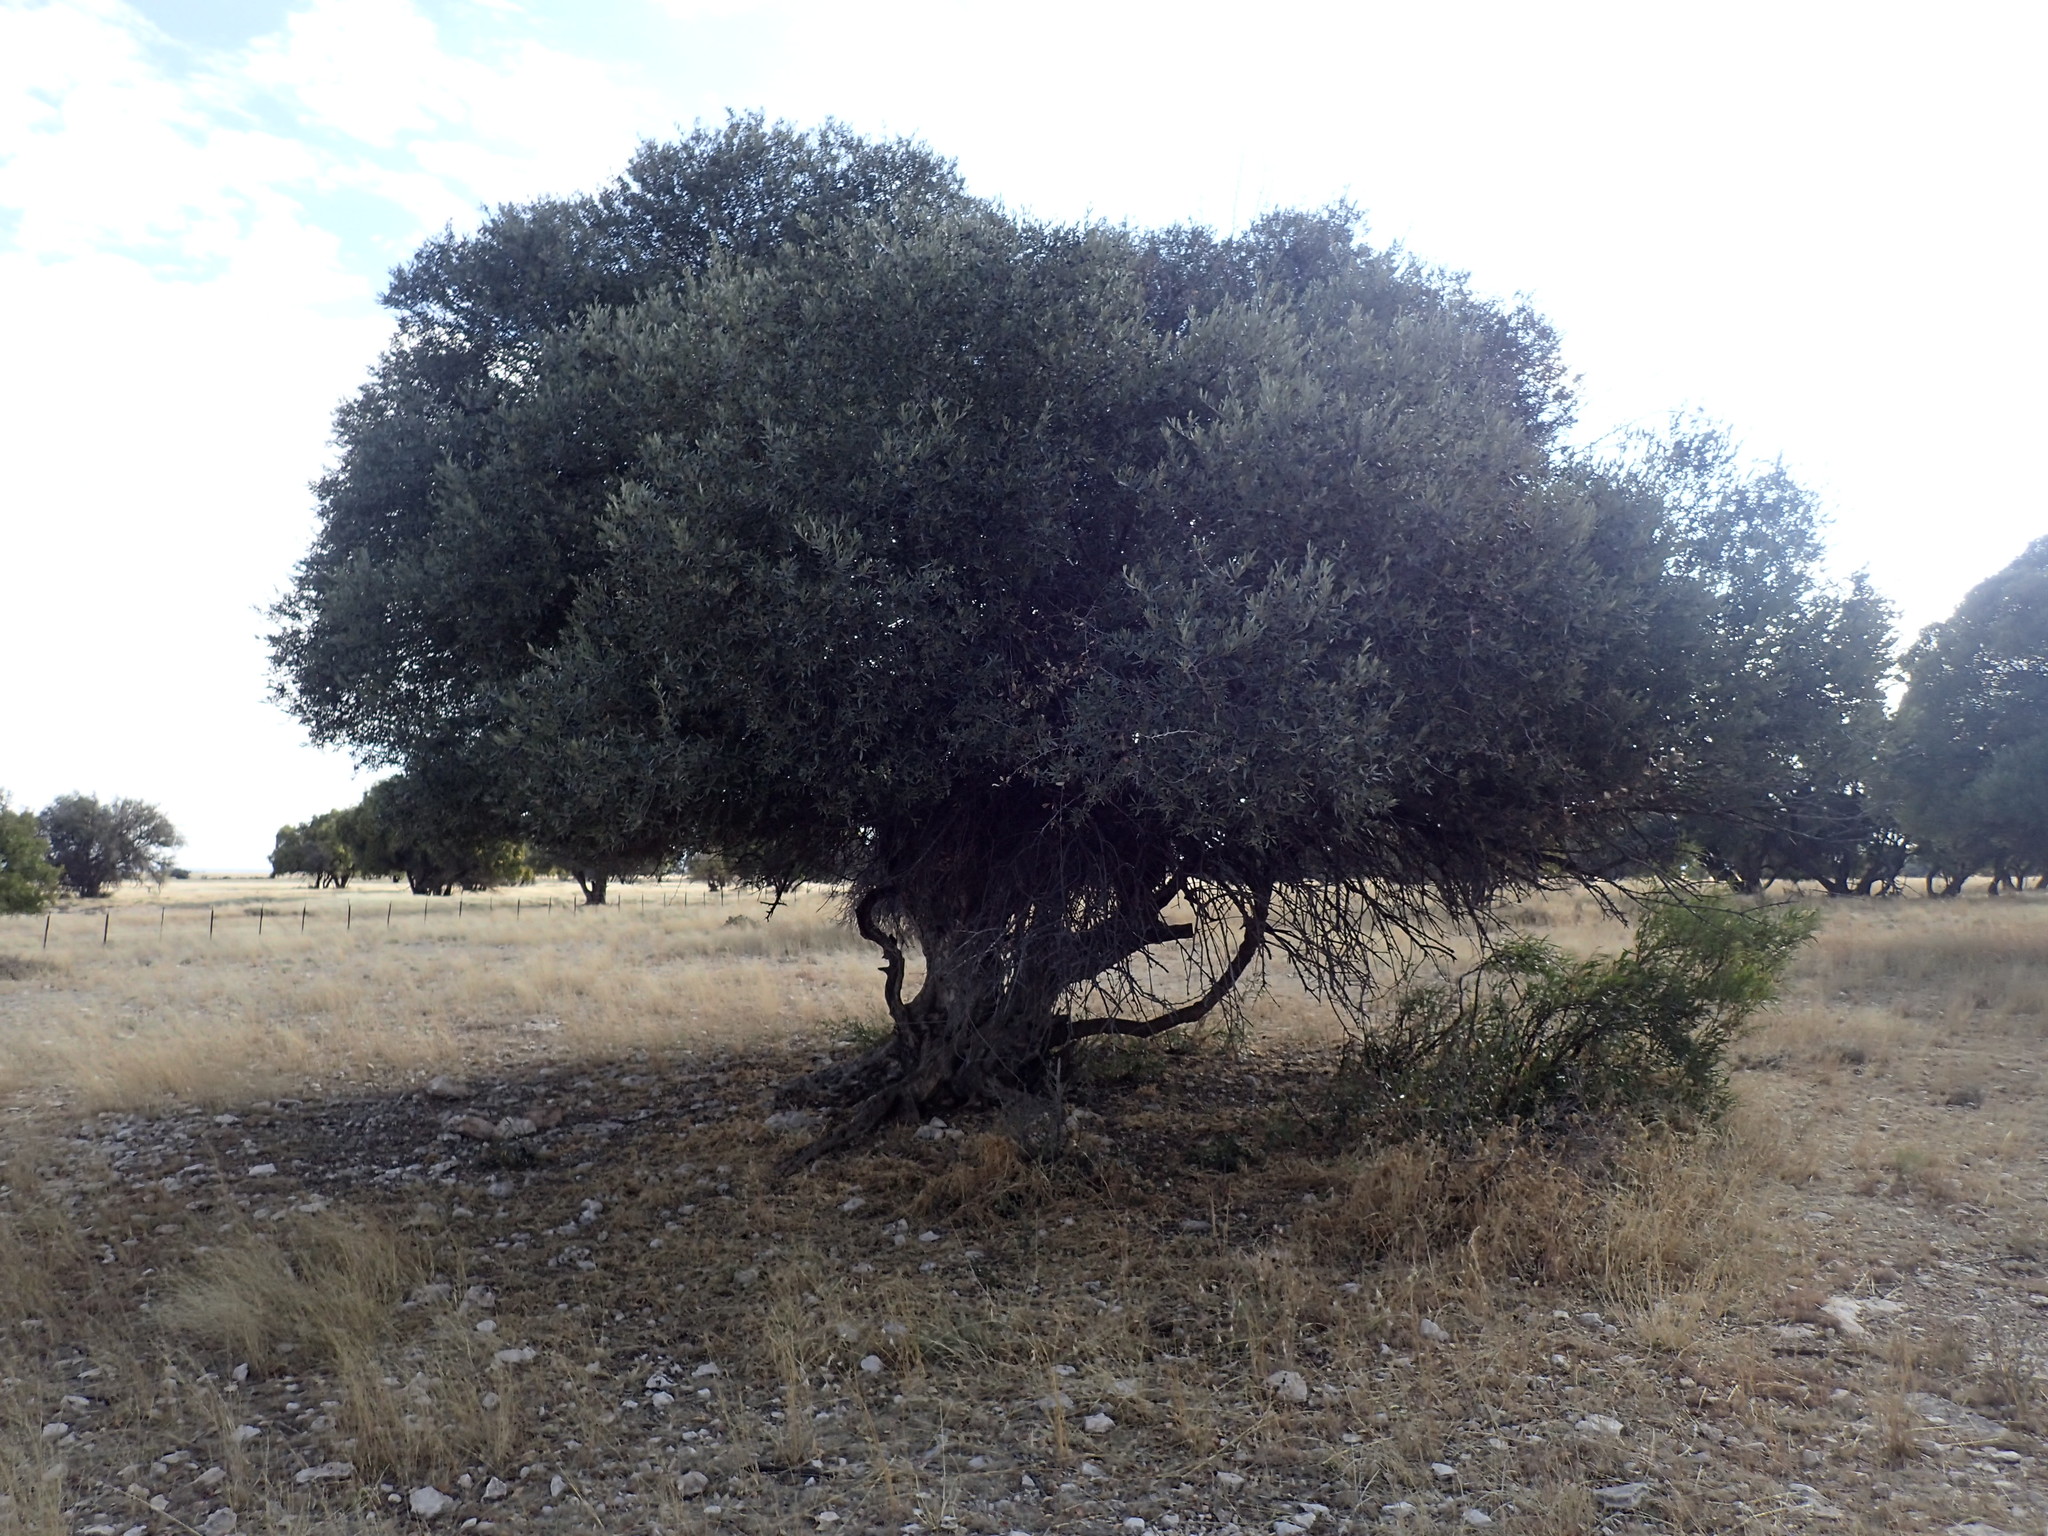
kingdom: Plantae
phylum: Tracheophyta
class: Magnoliopsida
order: Lamiales
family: Oleaceae
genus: Olea
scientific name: Olea europaea
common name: Olive
